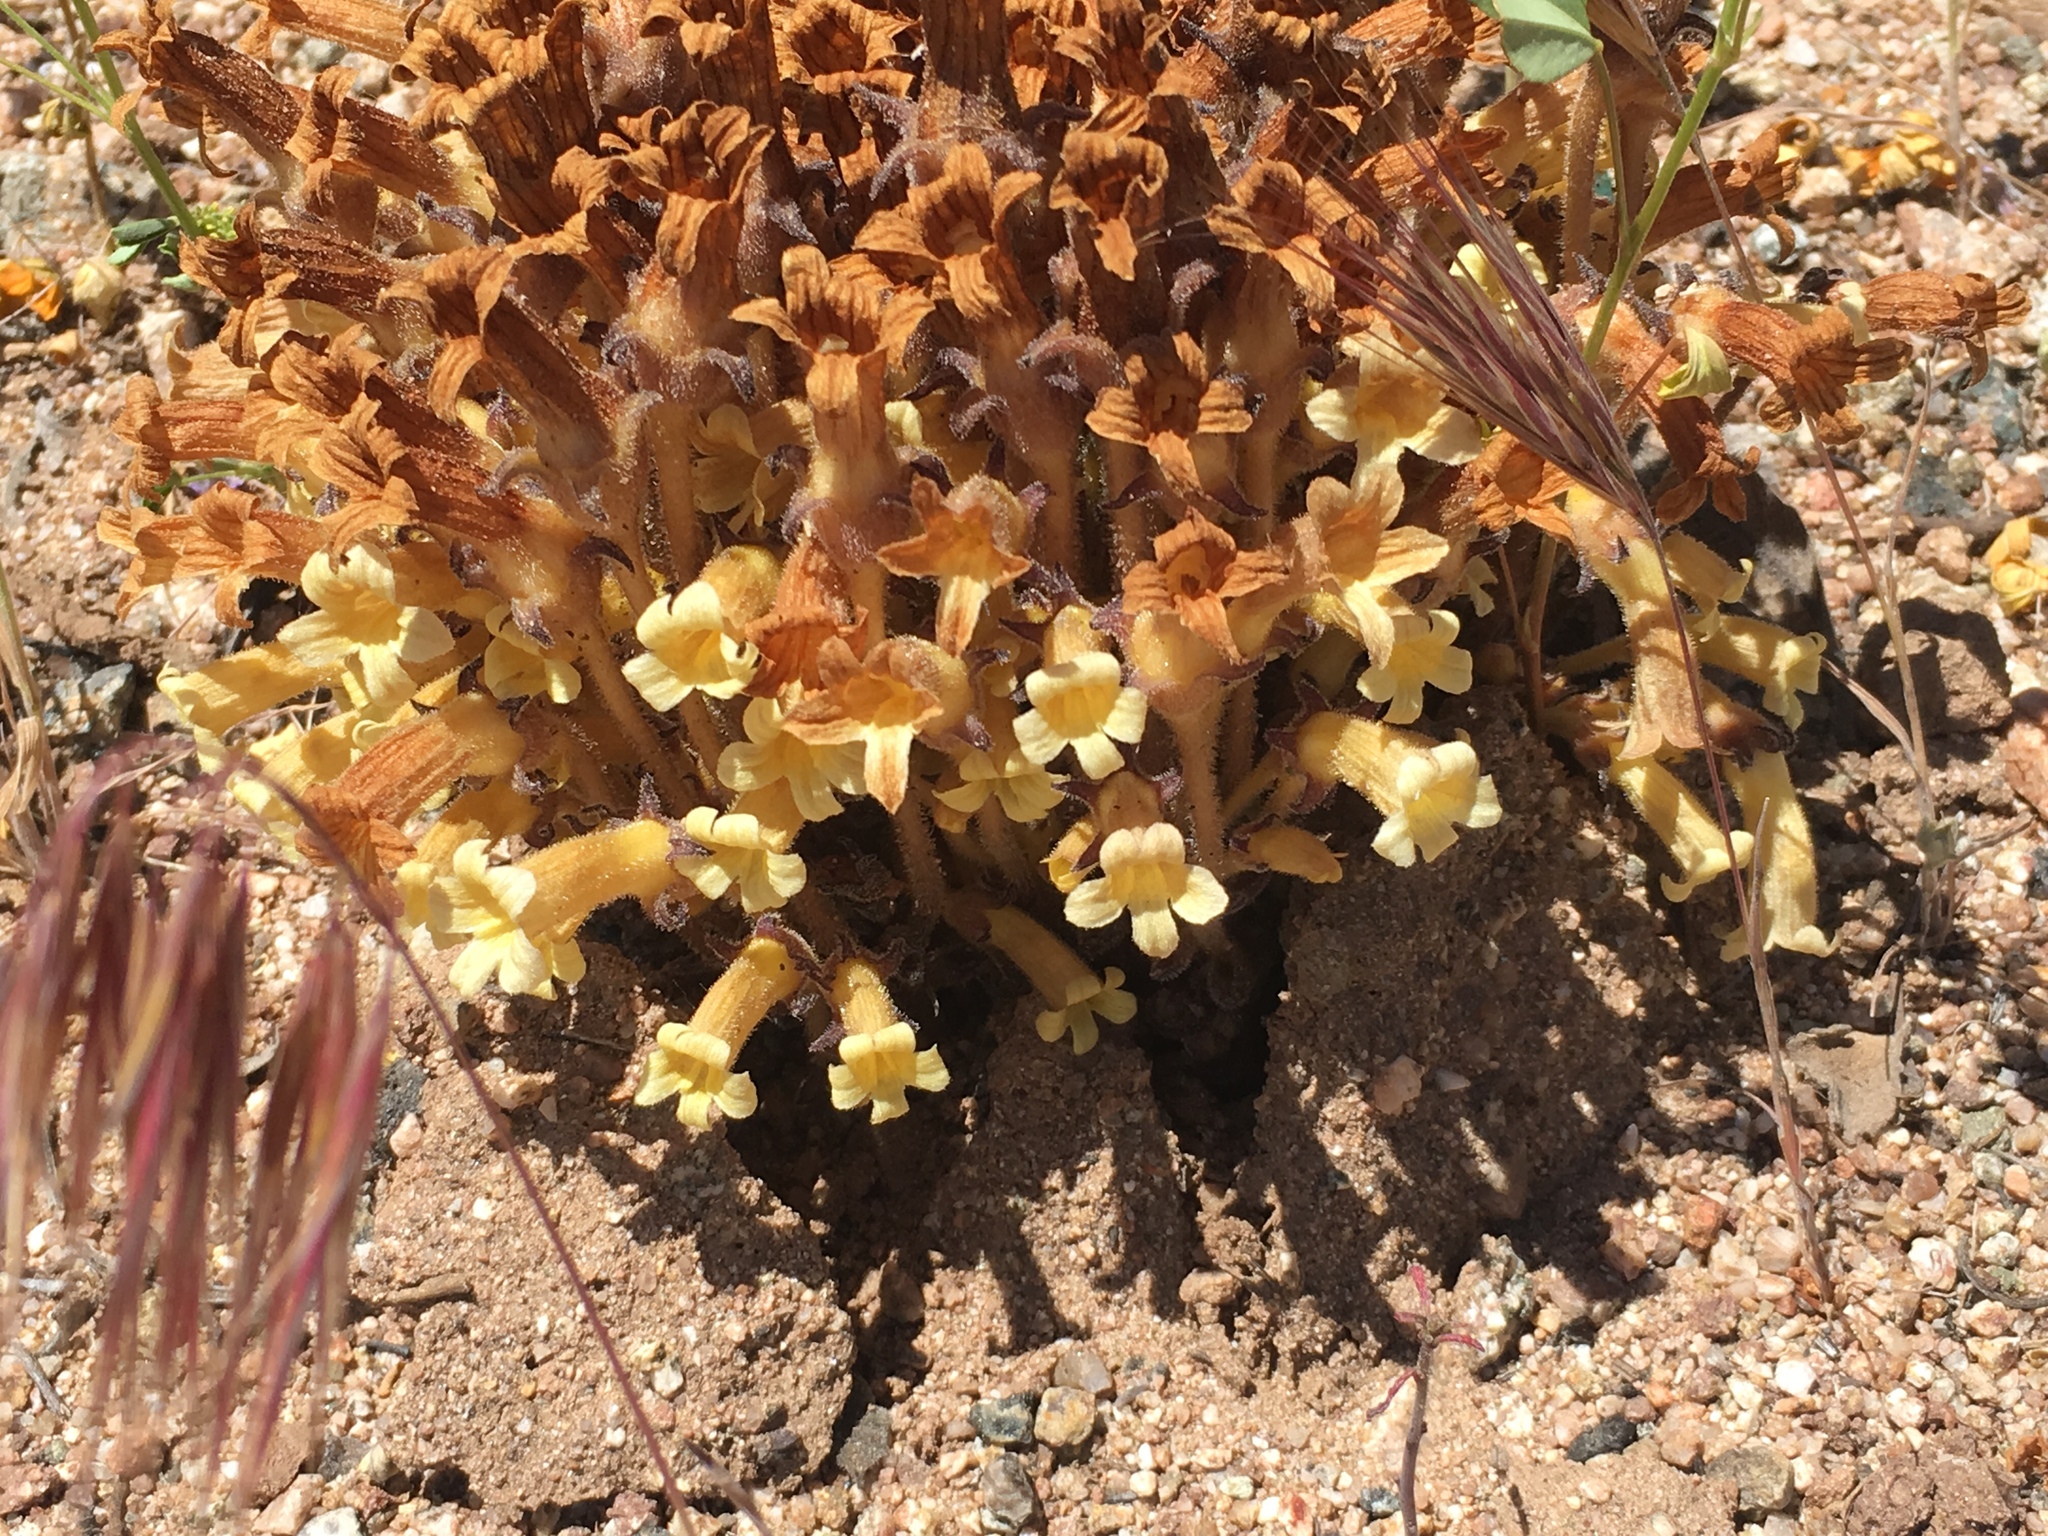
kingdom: Plantae
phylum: Tracheophyta
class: Magnoliopsida
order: Lamiales
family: Orobanchaceae
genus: Aphyllon
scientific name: Aphyllon franciscanum
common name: San francisco broomrape
